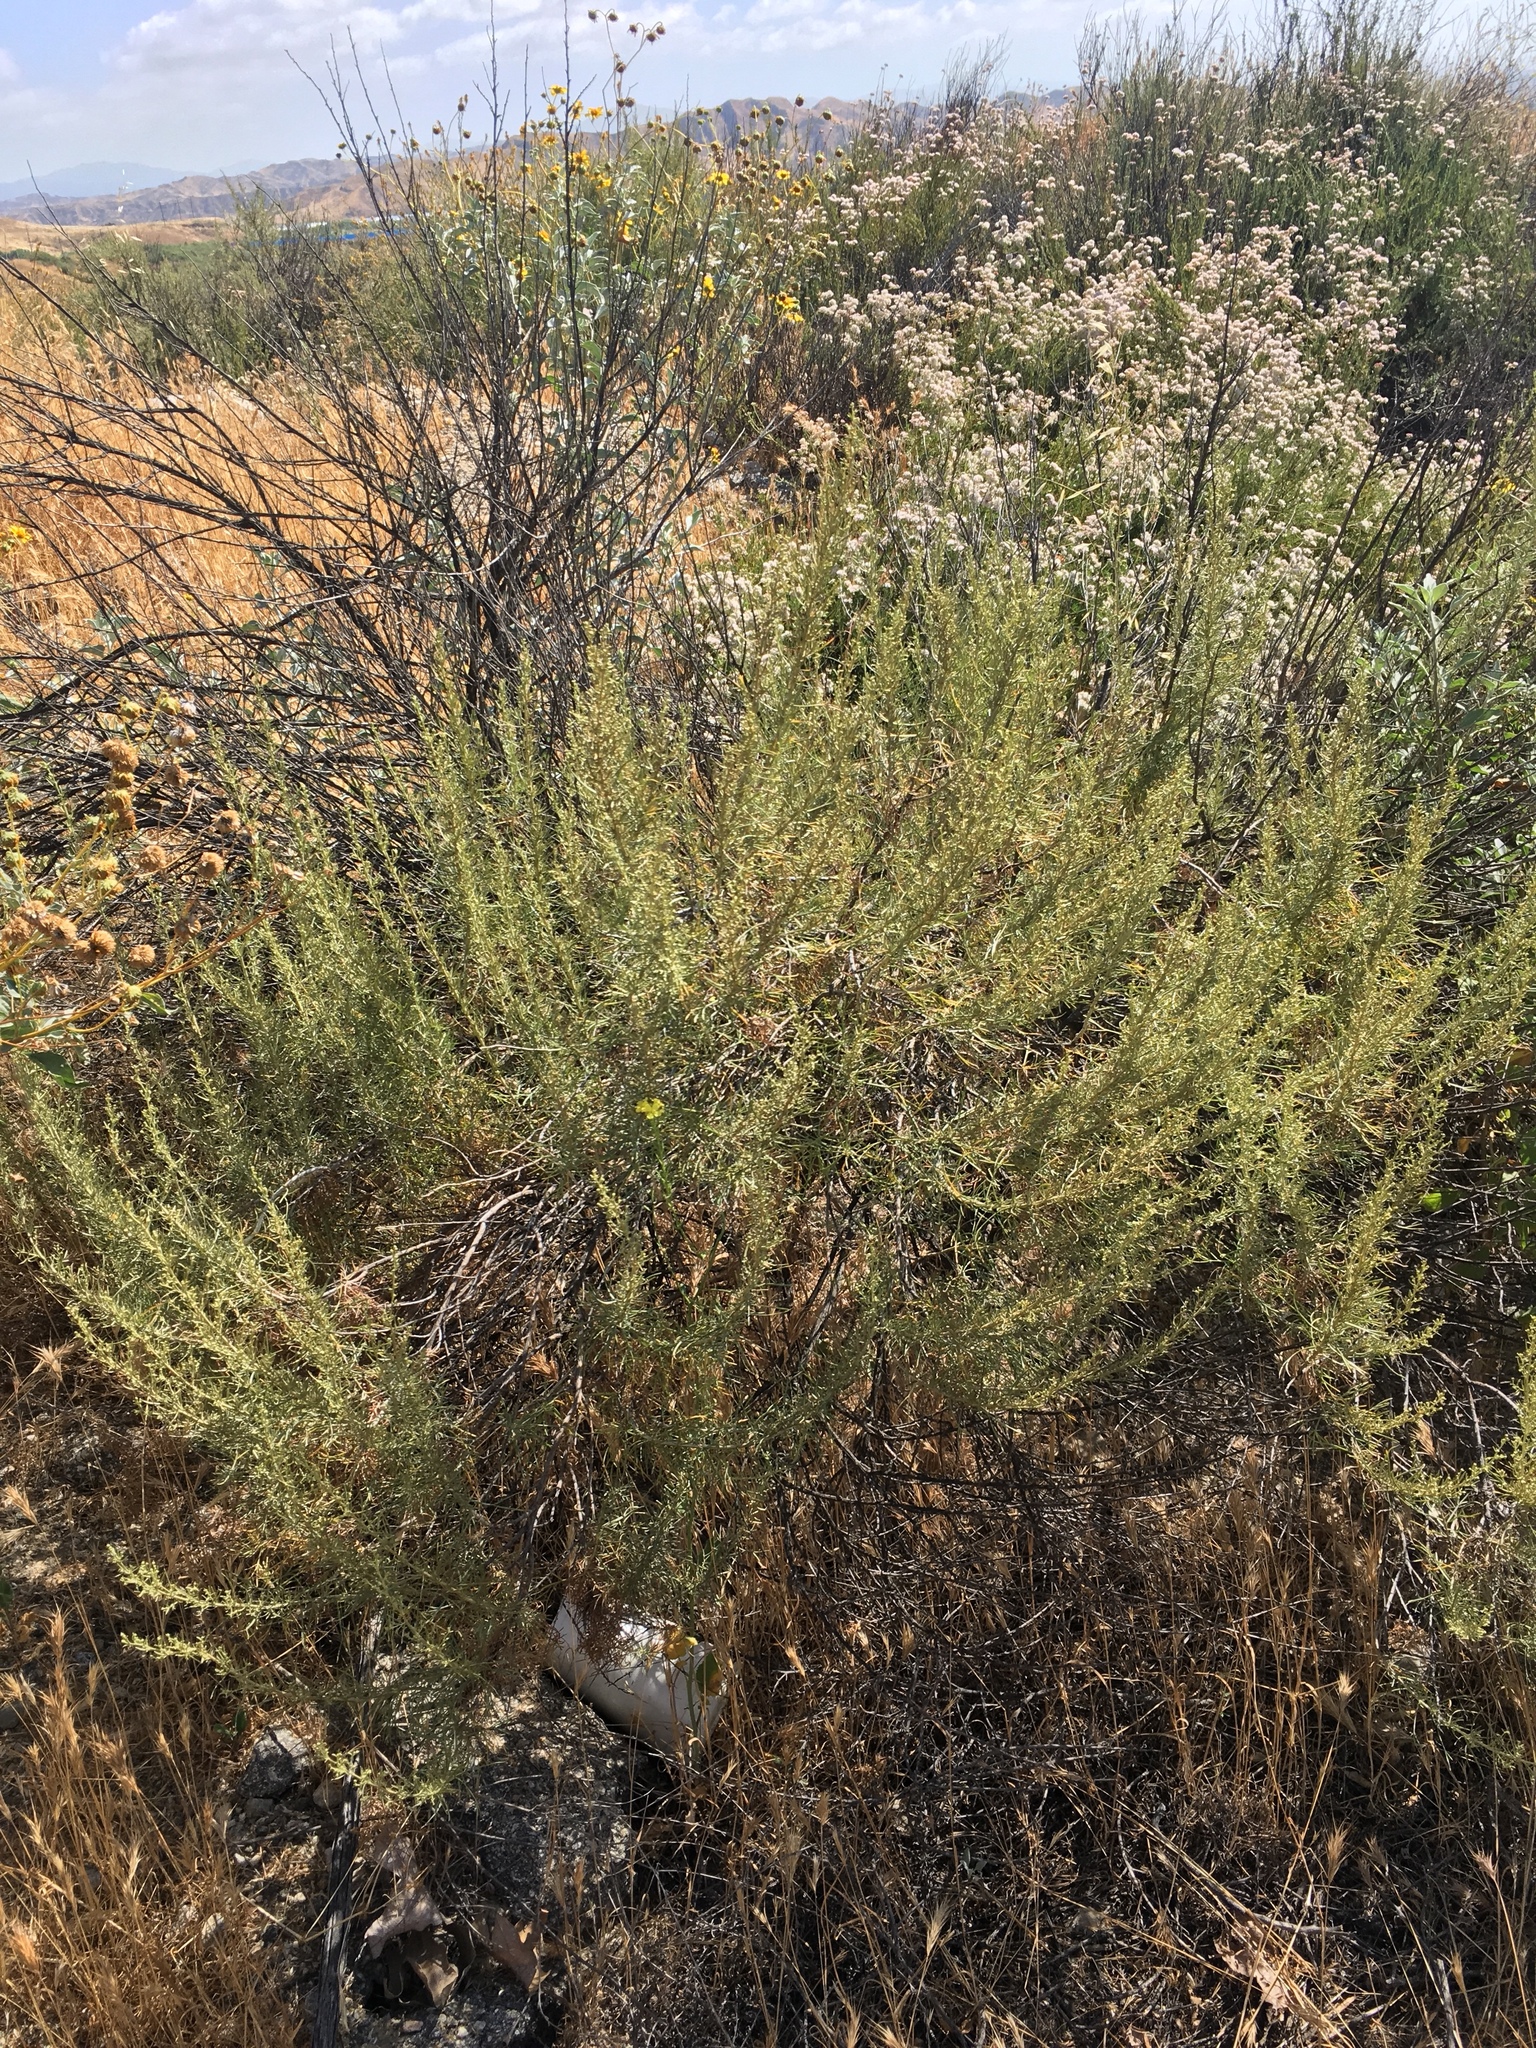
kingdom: Plantae
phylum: Tracheophyta
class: Magnoliopsida
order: Asterales
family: Asteraceae
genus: Artemisia
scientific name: Artemisia californica
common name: California sagebrush
